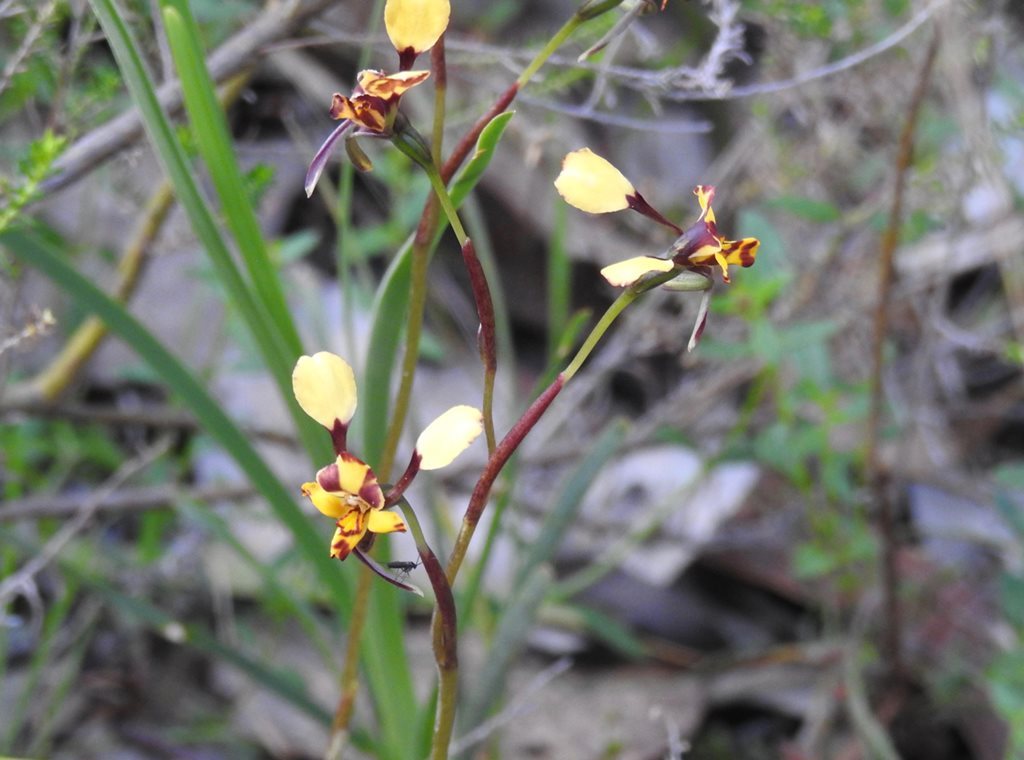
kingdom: Plantae
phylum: Tracheophyta
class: Liliopsida
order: Asparagales
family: Orchidaceae
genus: Diuris
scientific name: Diuris pardina
